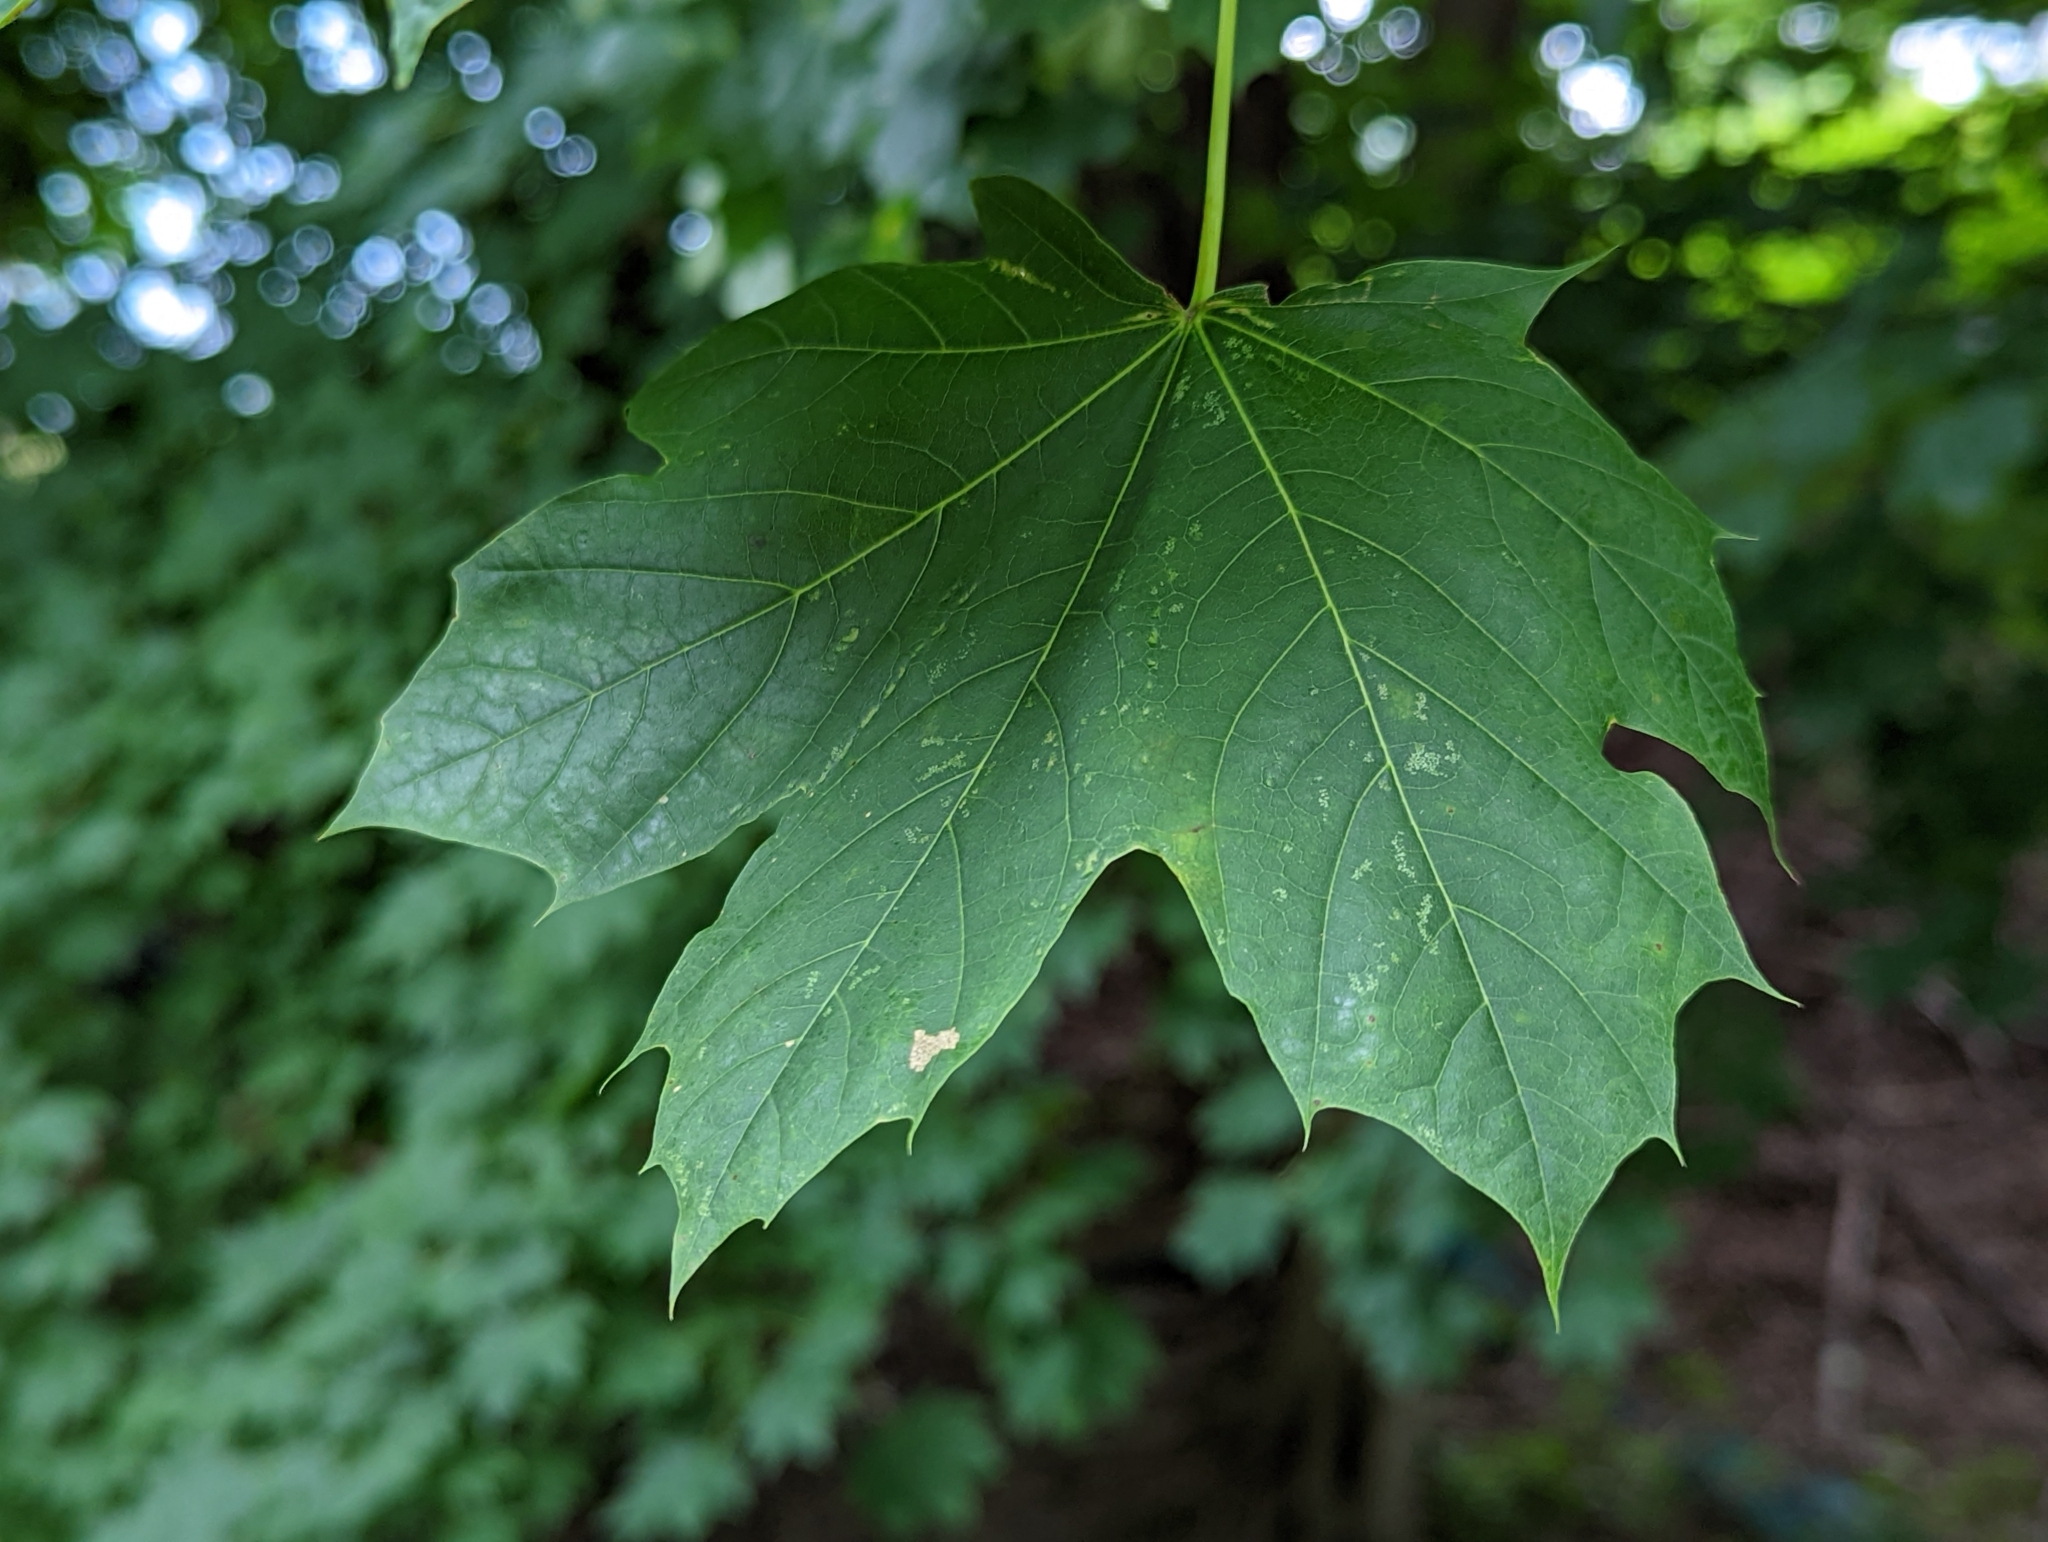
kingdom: Plantae
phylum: Tracheophyta
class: Magnoliopsida
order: Sapindales
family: Sapindaceae
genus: Acer
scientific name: Acer platanoides
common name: Norway maple
